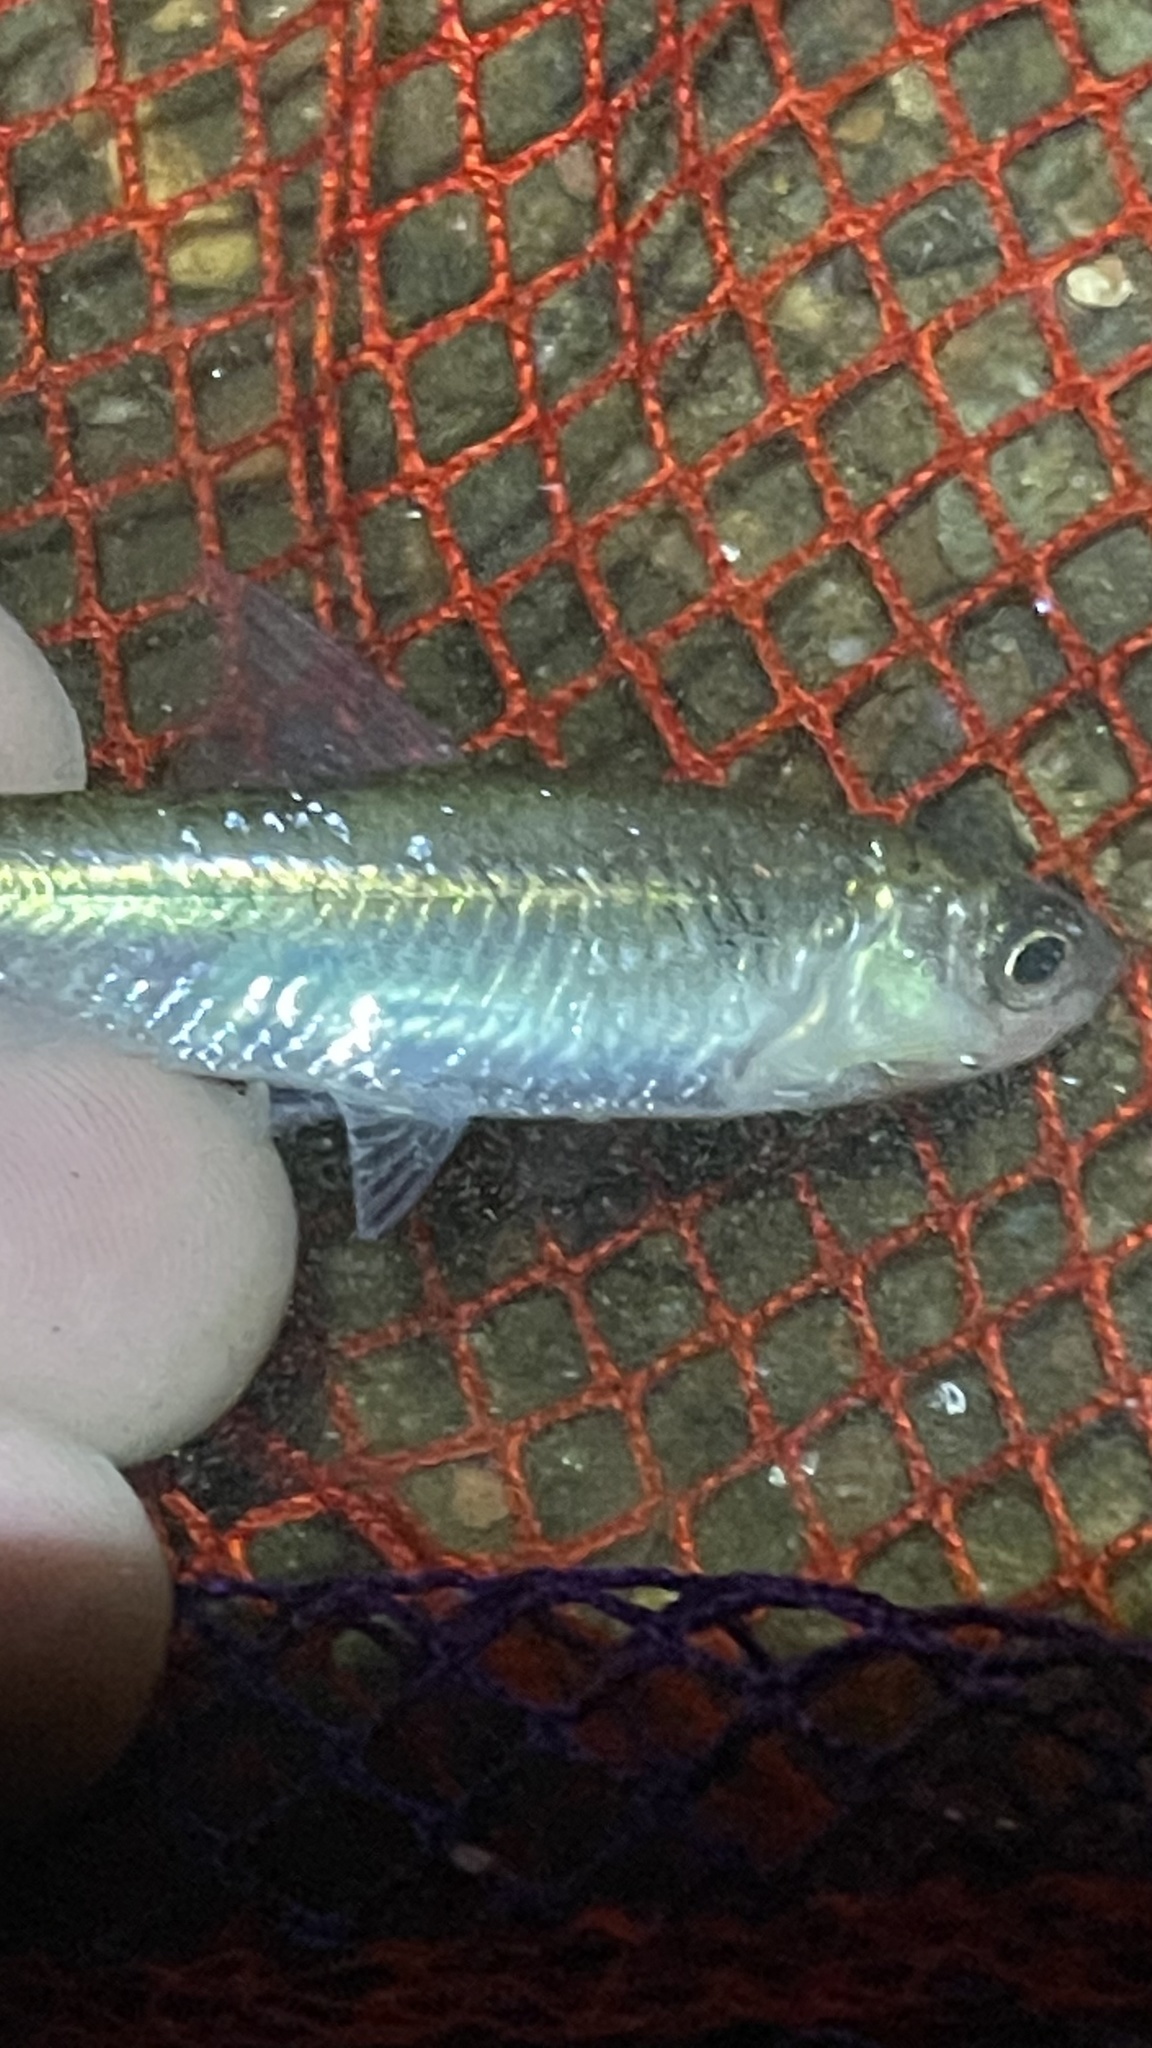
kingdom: Animalia
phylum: Chordata
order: Cypriniformes
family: Cyprinidae
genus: Luxilus
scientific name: Luxilus cornutus
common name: Common shiner
